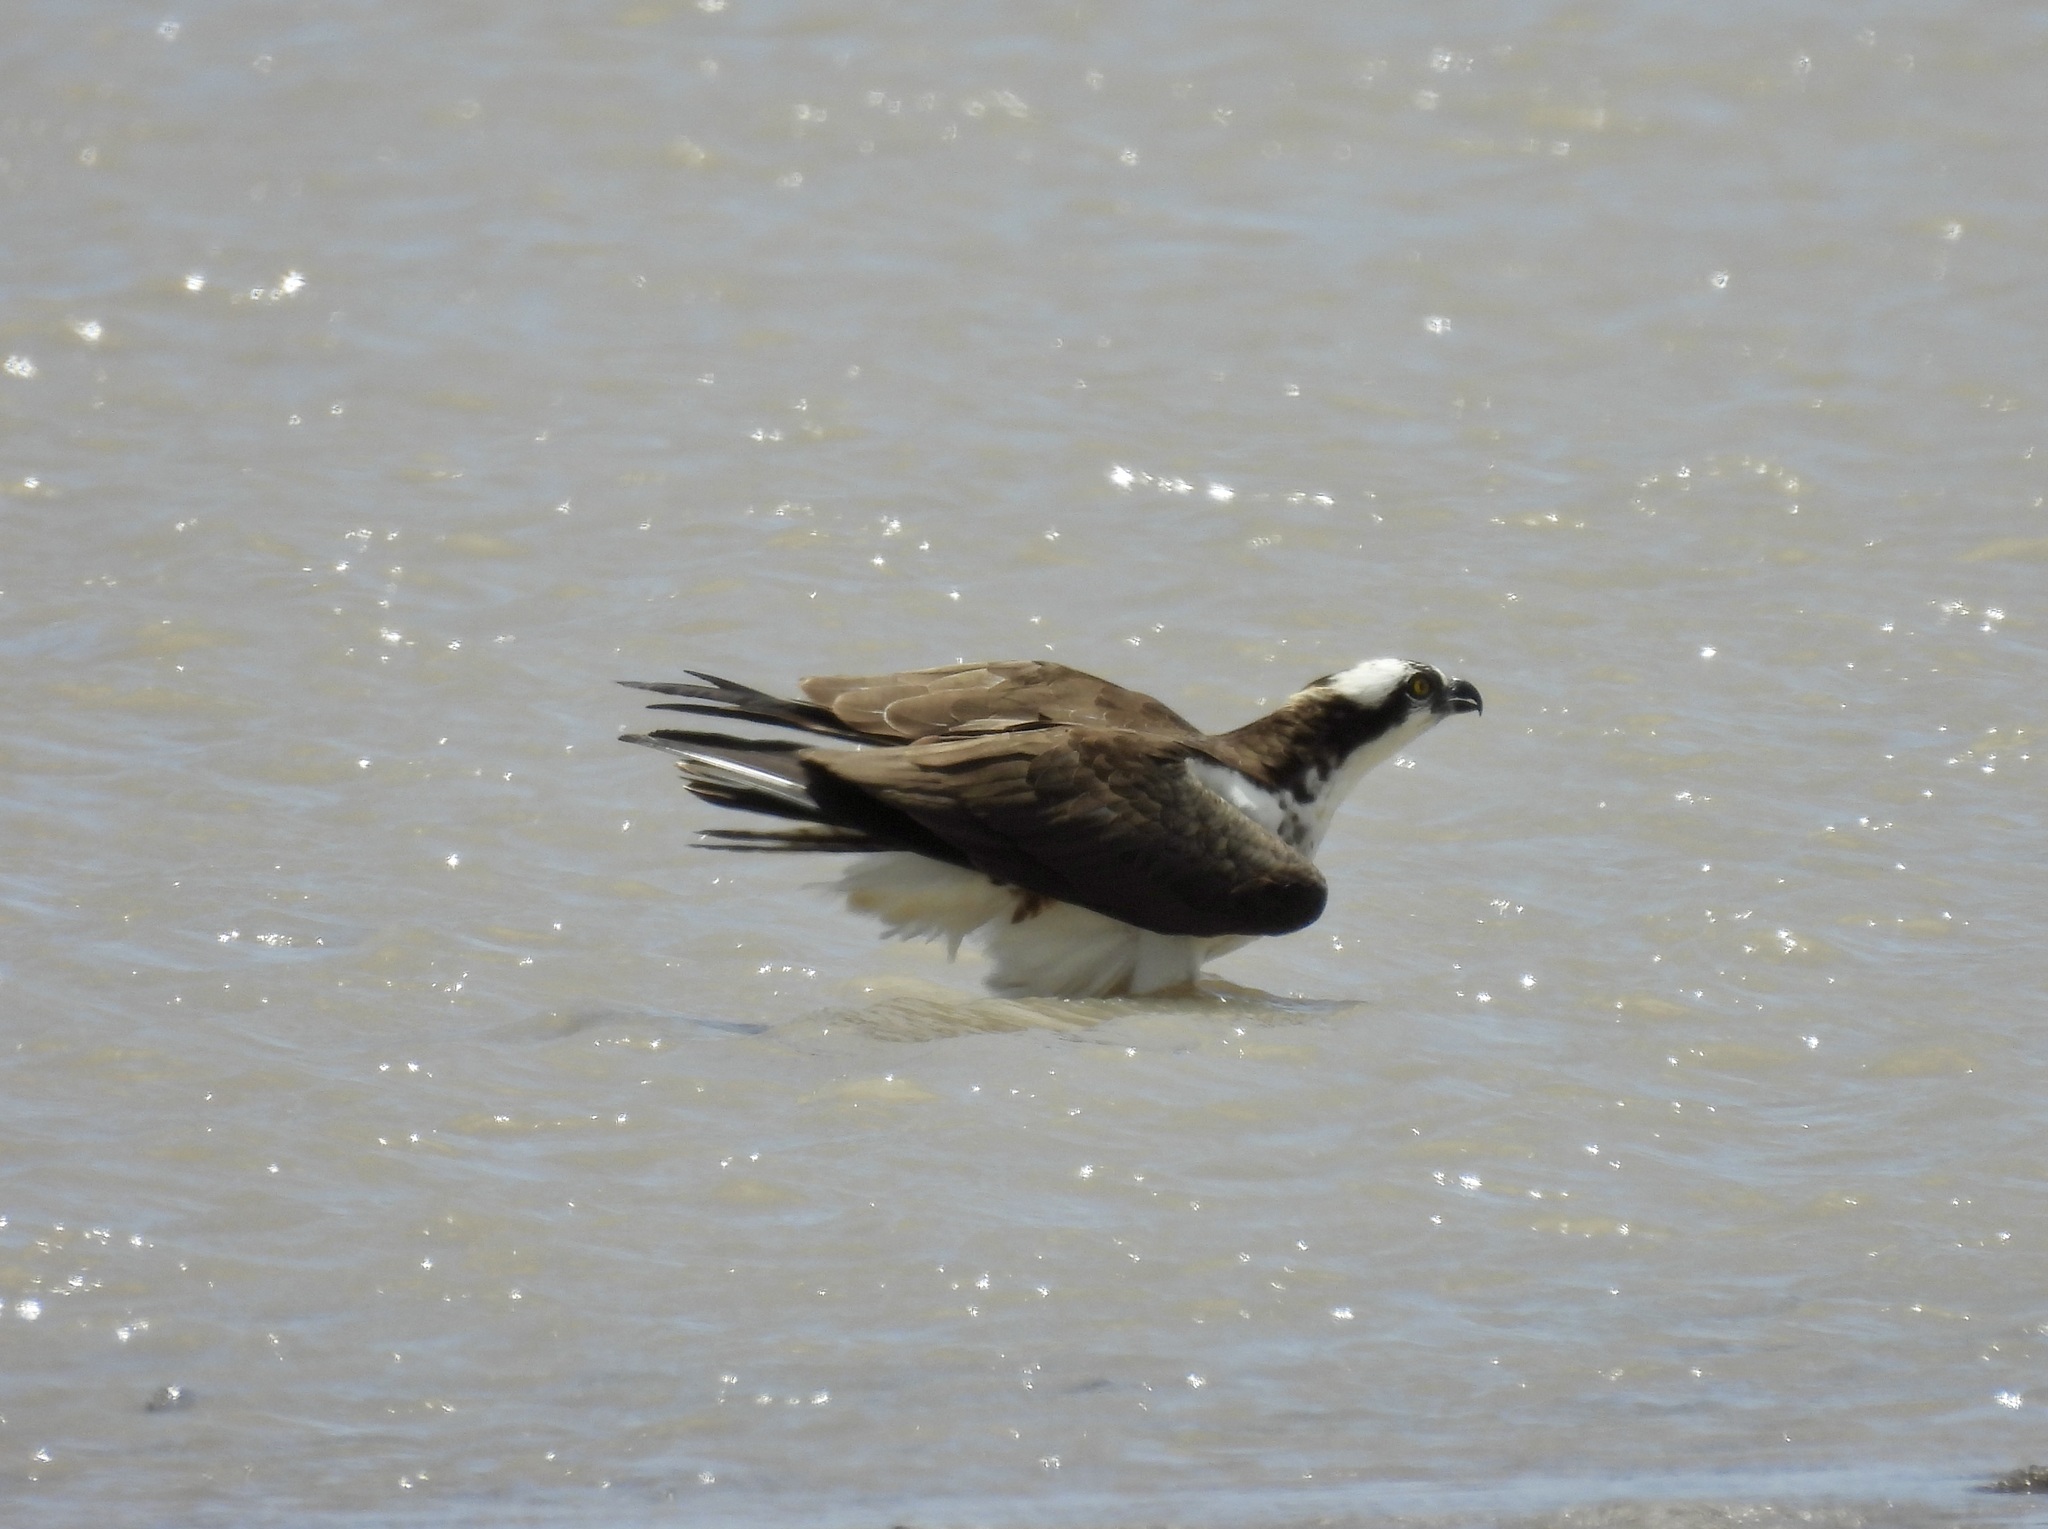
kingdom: Animalia
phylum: Chordata
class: Aves
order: Accipitriformes
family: Pandionidae
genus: Pandion
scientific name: Pandion haliaetus
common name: Osprey
